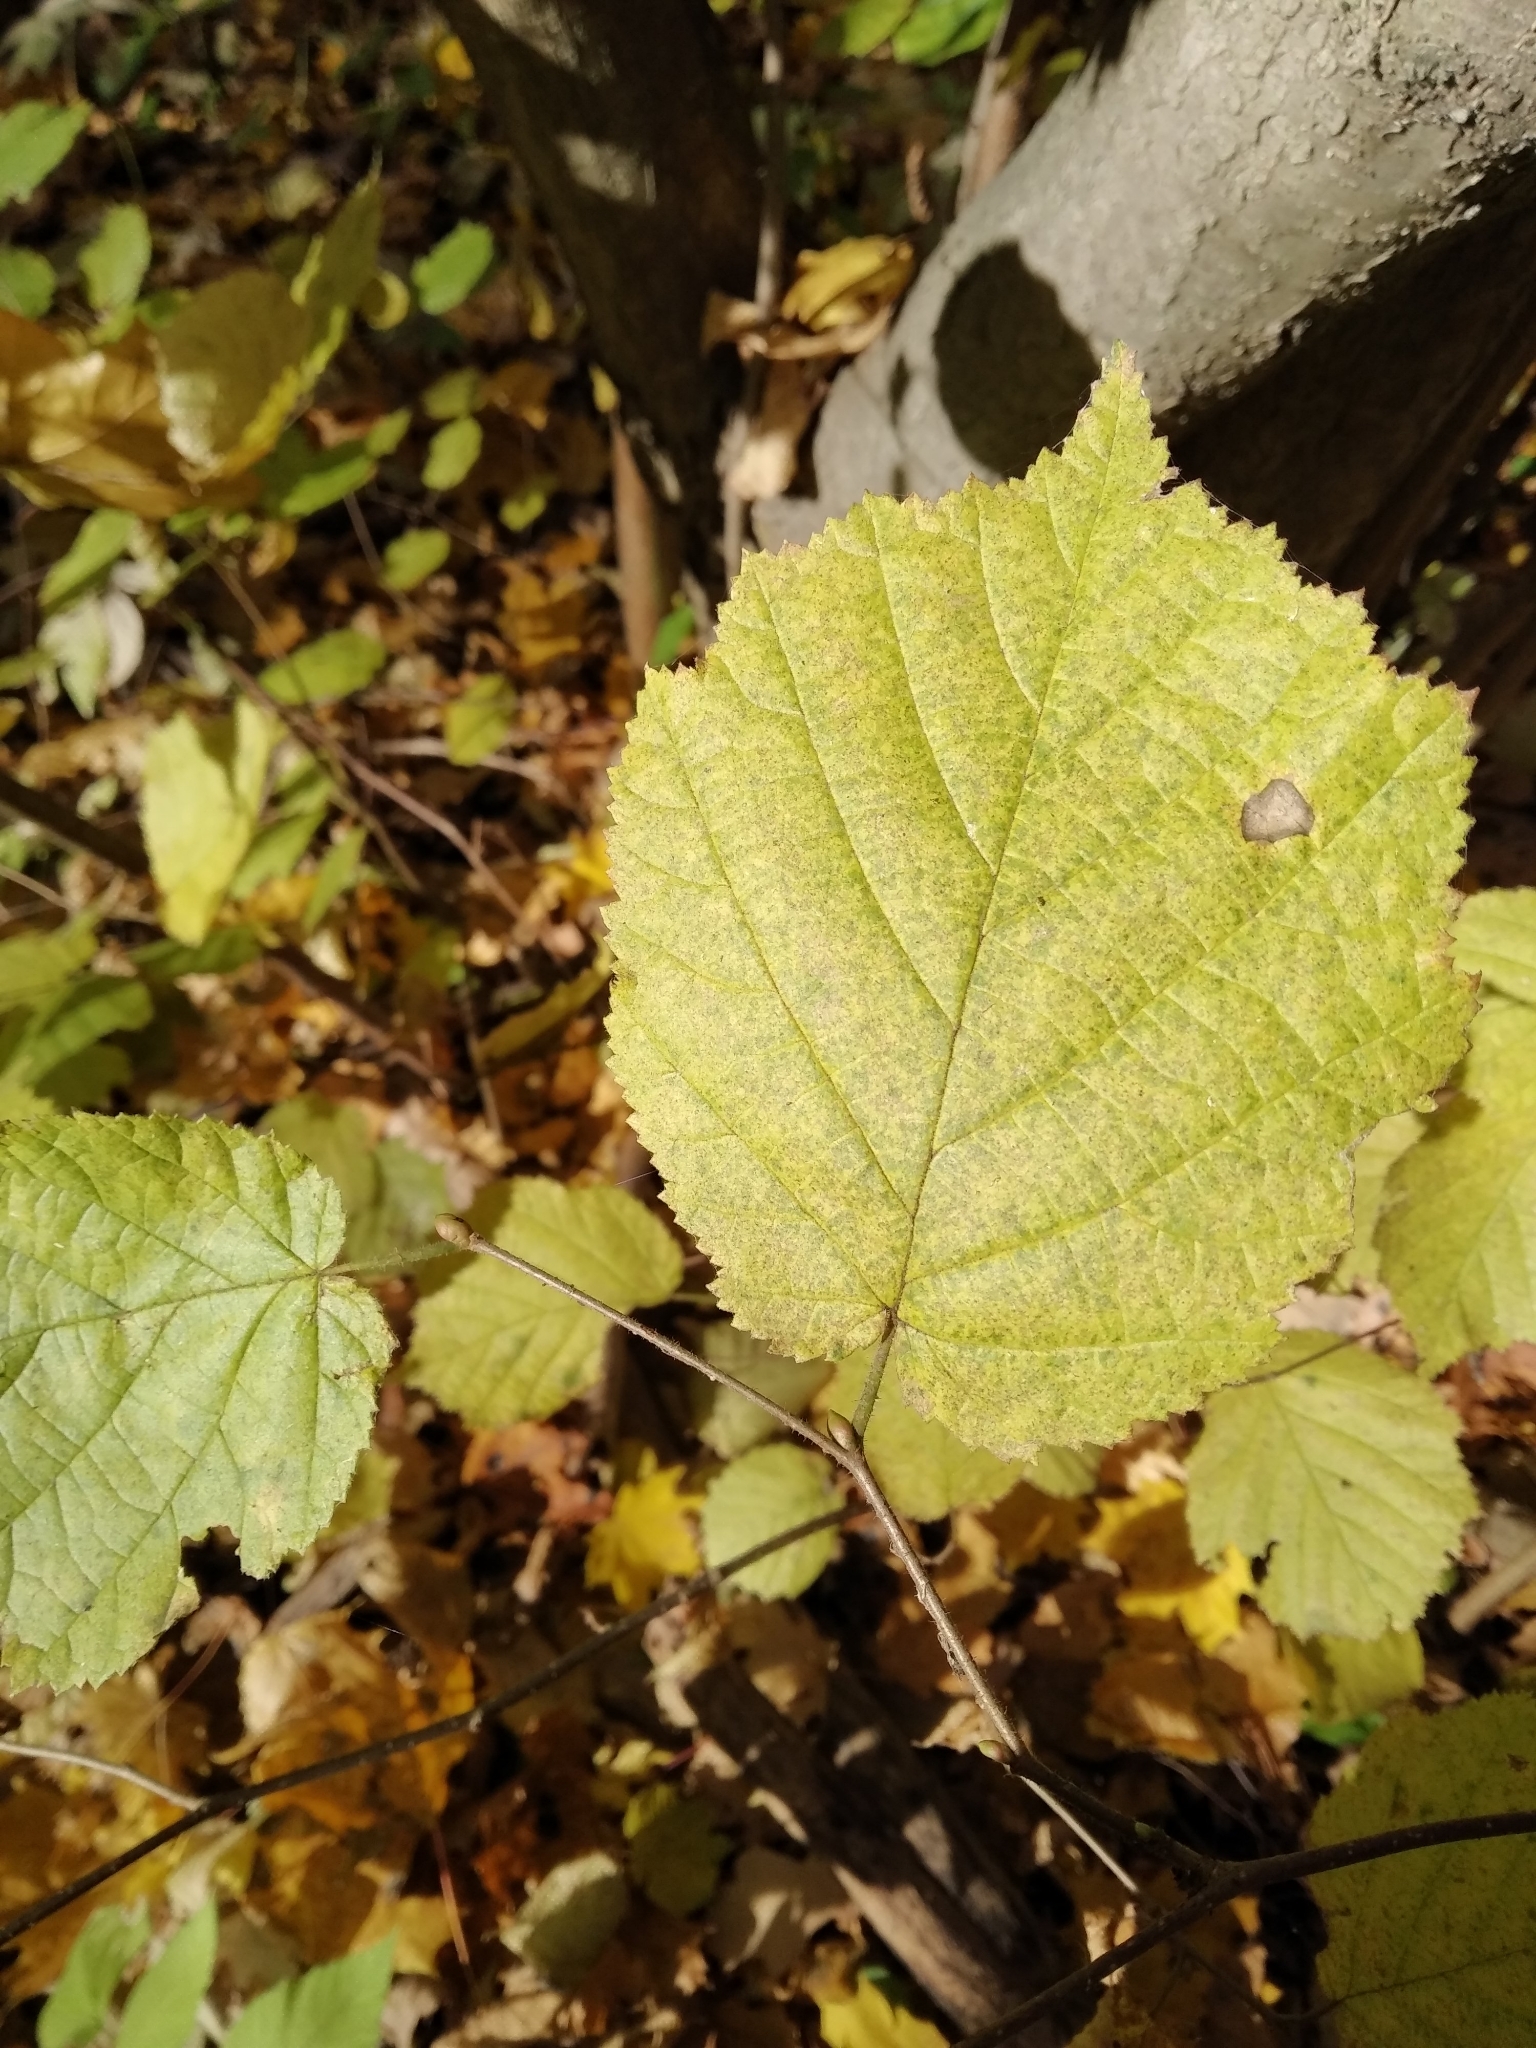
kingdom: Plantae
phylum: Tracheophyta
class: Magnoliopsida
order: Fagales
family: Betulaceae
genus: Corylus
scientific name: Corylus avellana
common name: European hazel
